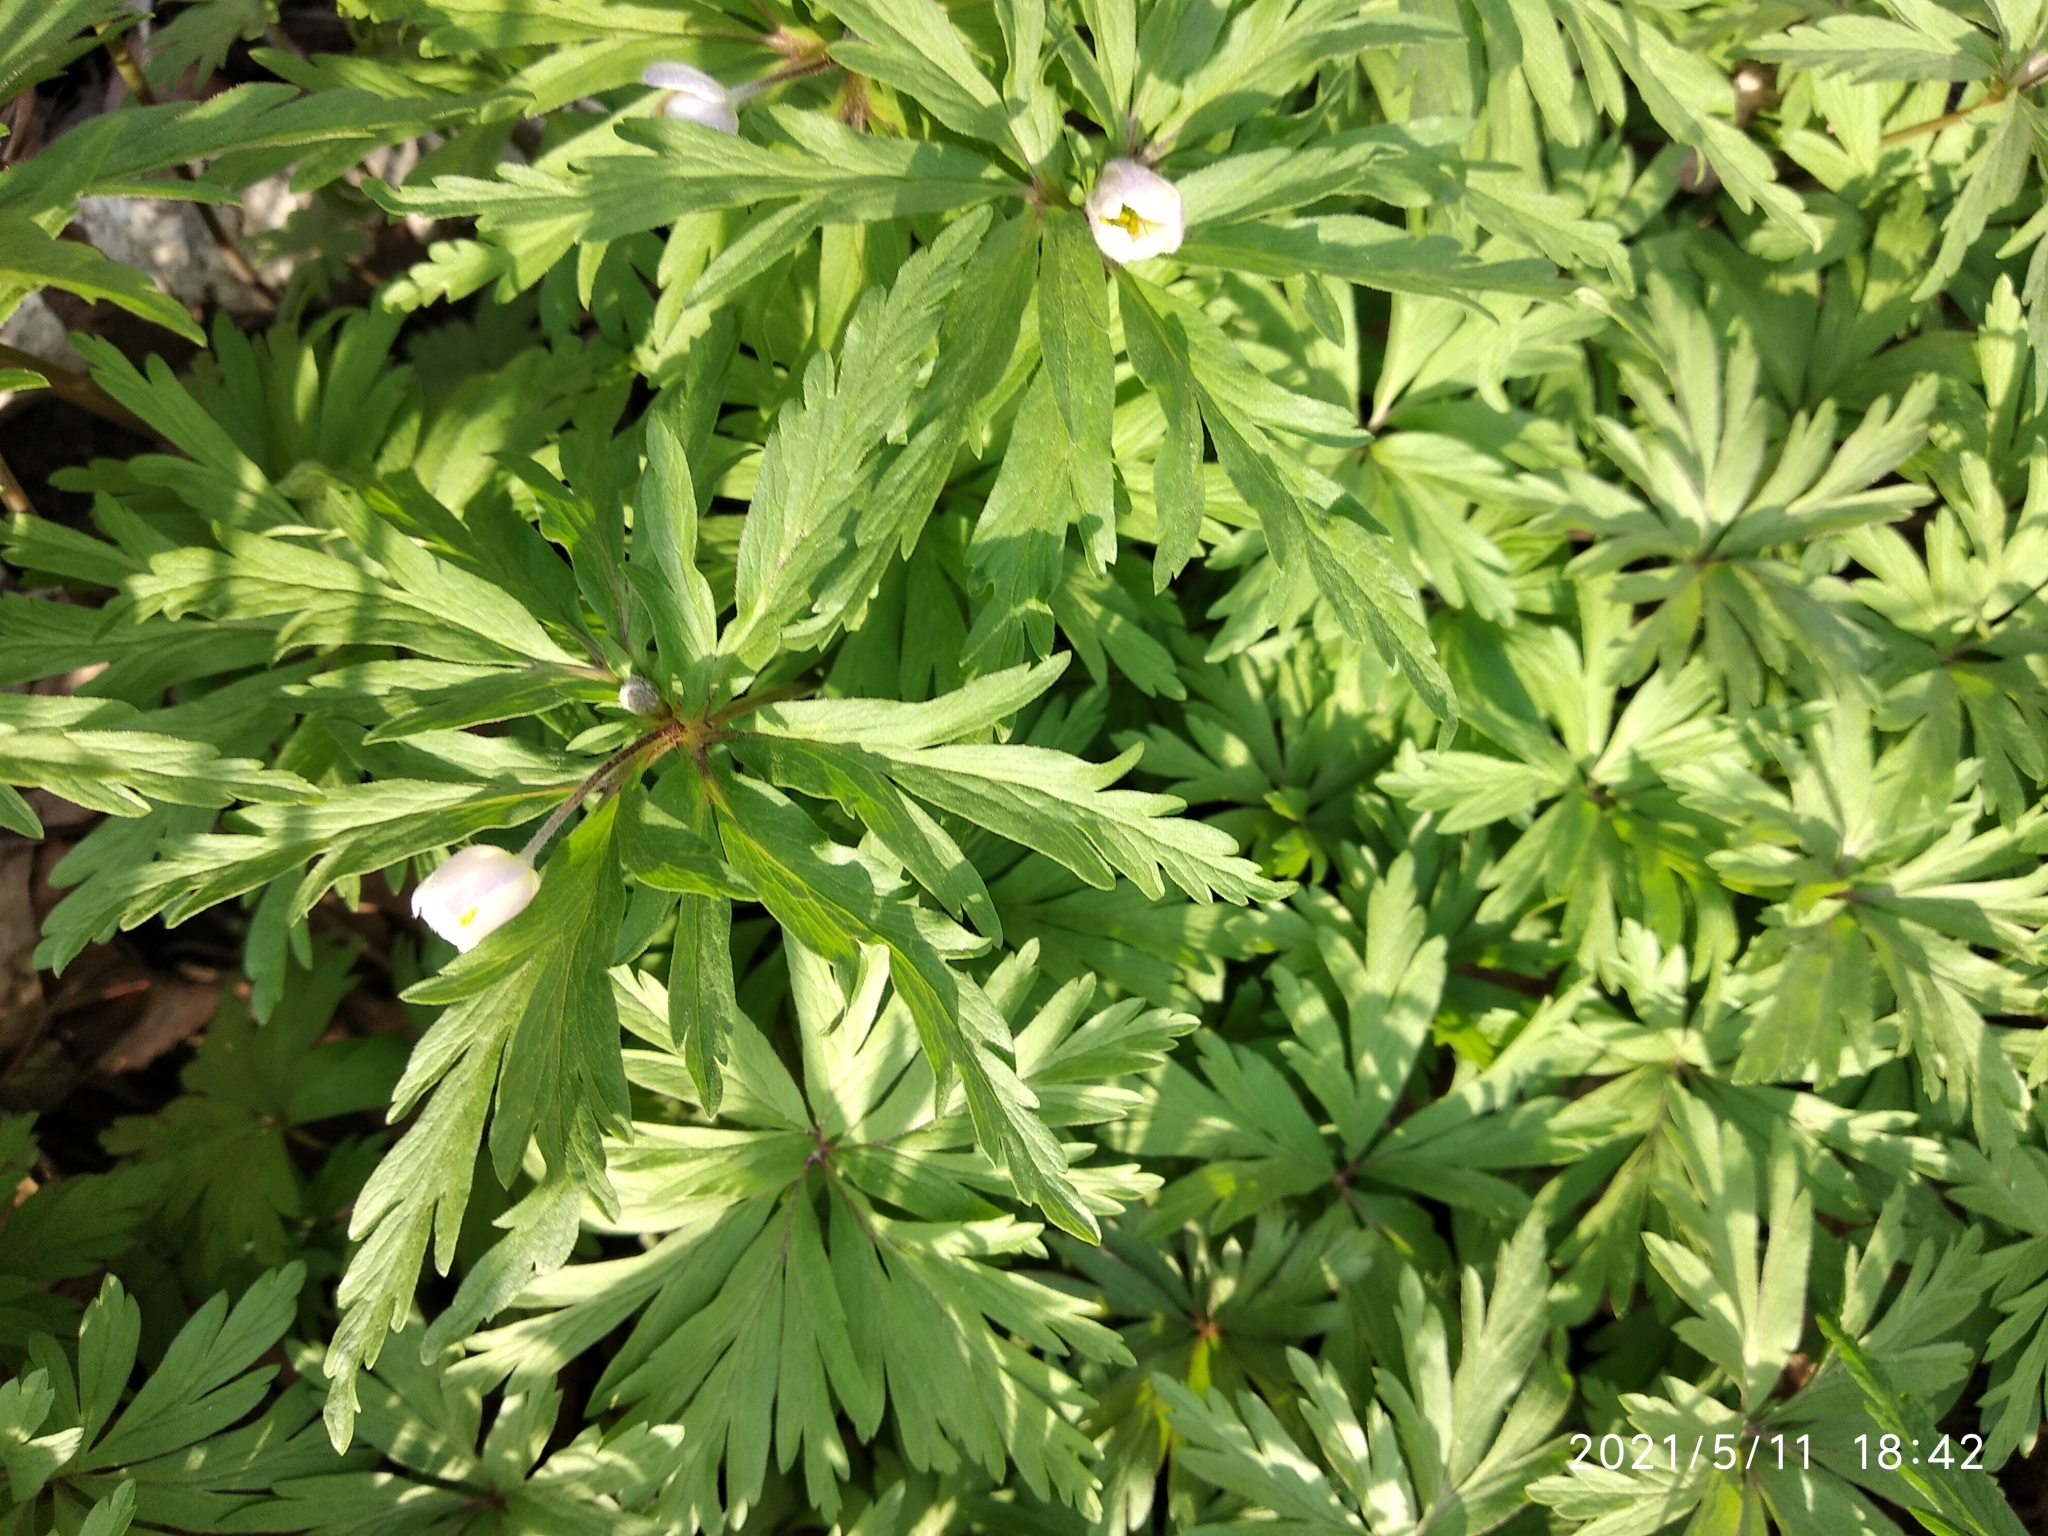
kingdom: Plantae
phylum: Tracheophyta
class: Magnoliopsida
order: Ranunculales
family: Ranunculaceae
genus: Anemone
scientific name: Anemone caerulea
